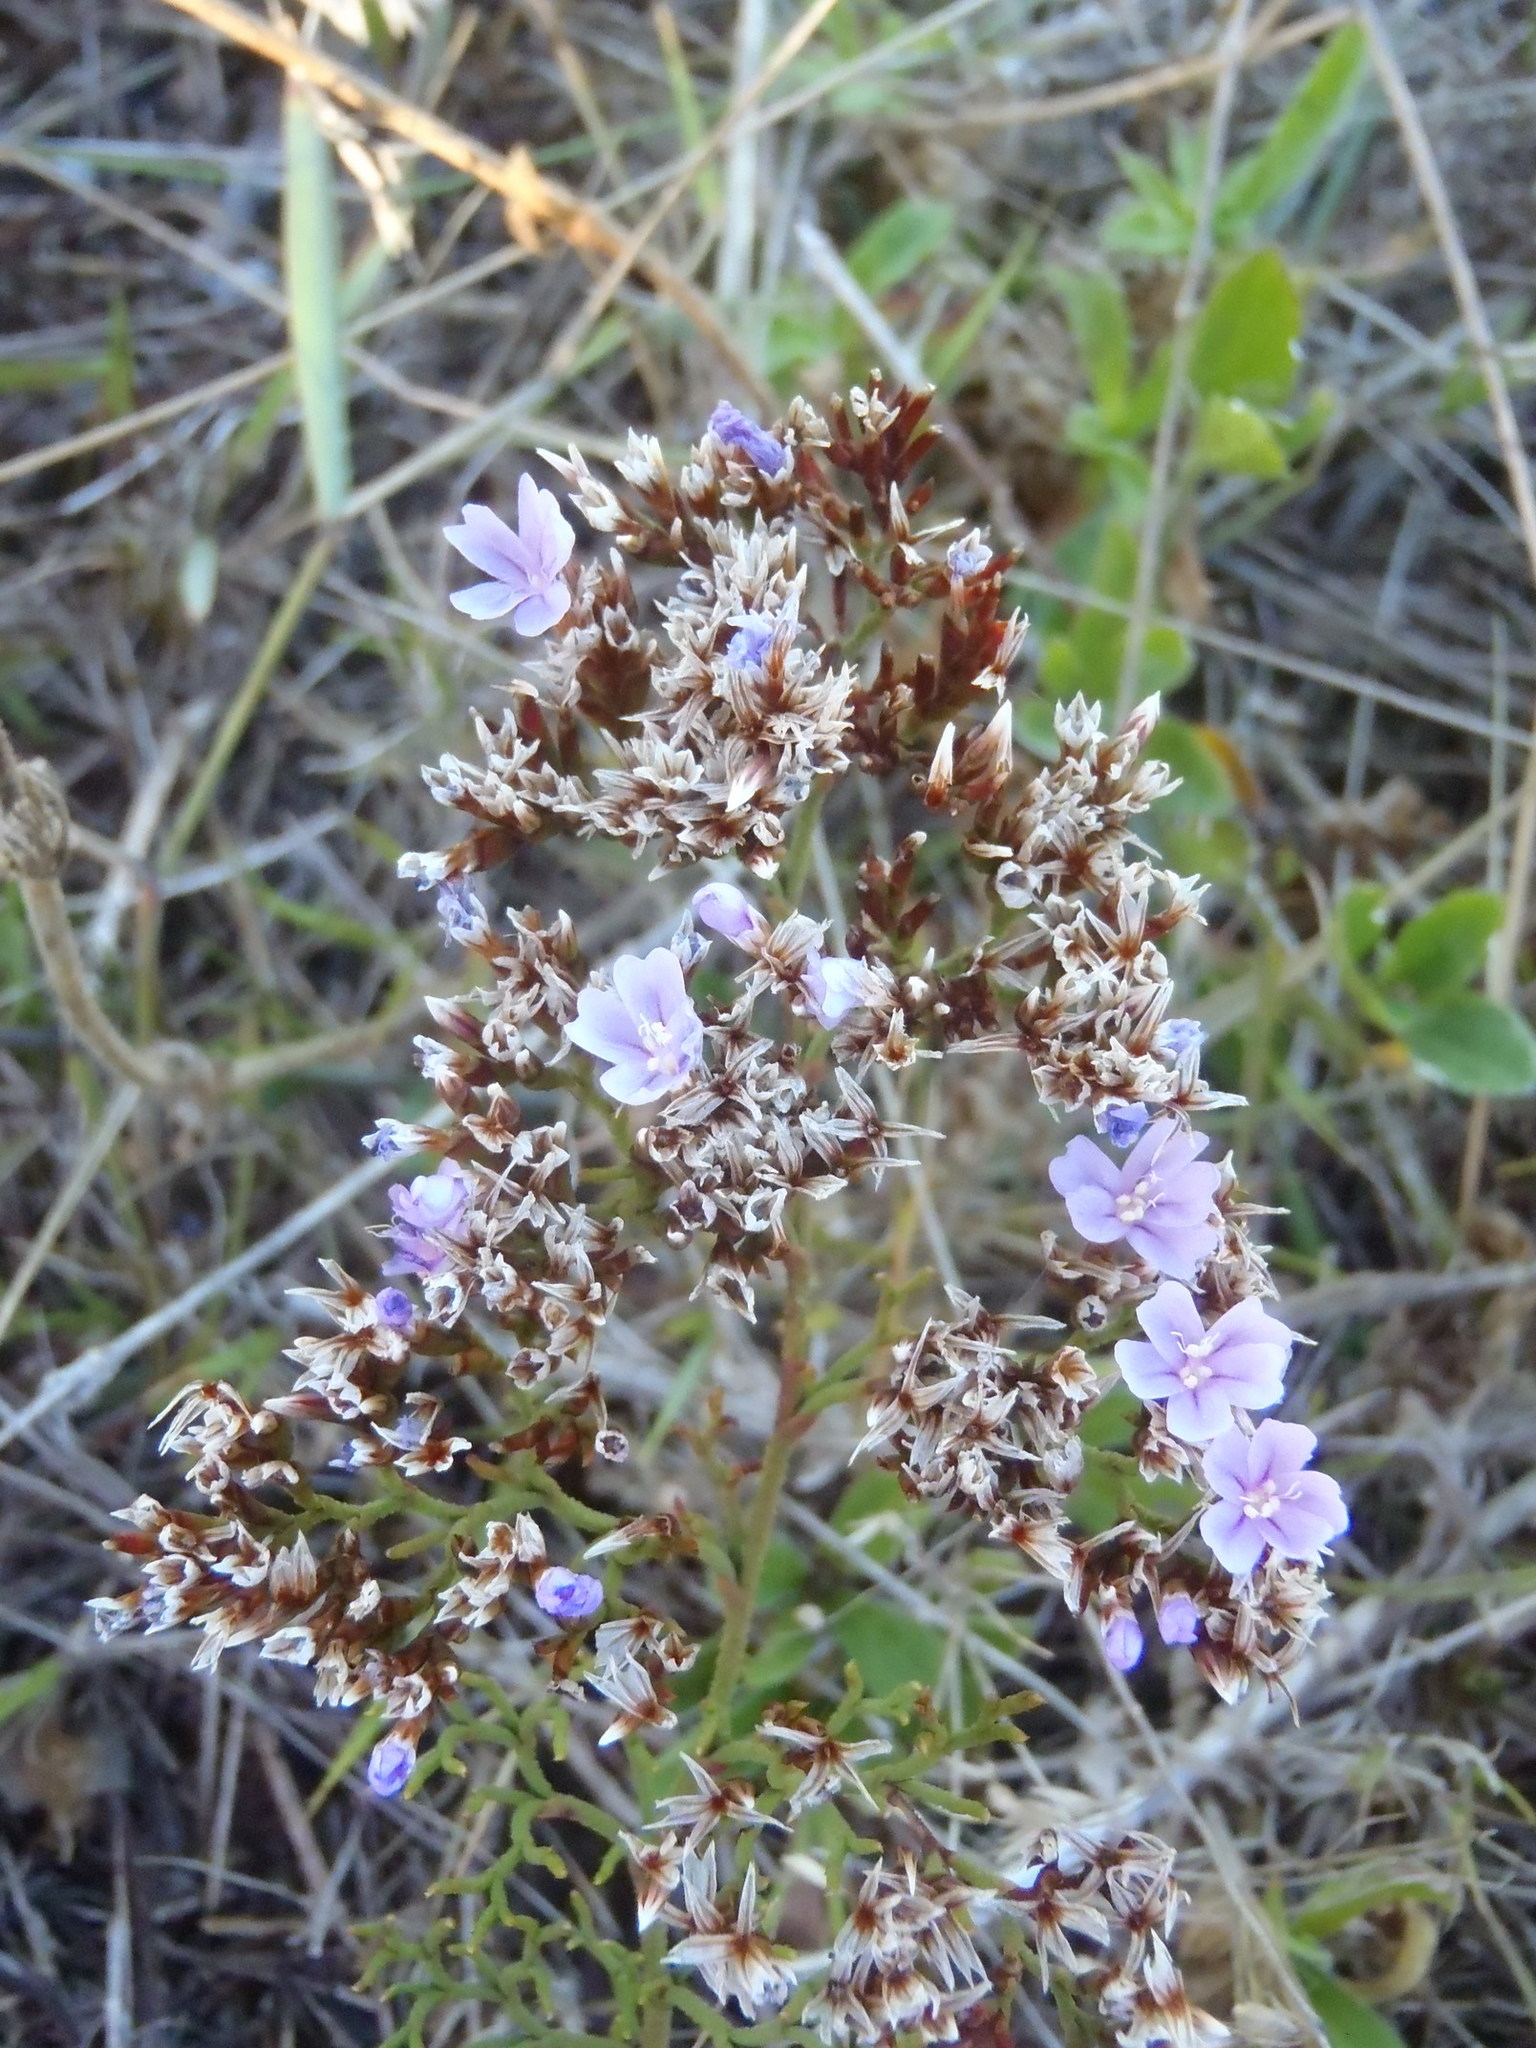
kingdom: Plantae
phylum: Tracheophyta
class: Magnoliopsida
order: Caryophyllales
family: Plumbaginaceae
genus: Limonium
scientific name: Limonium scabrum
